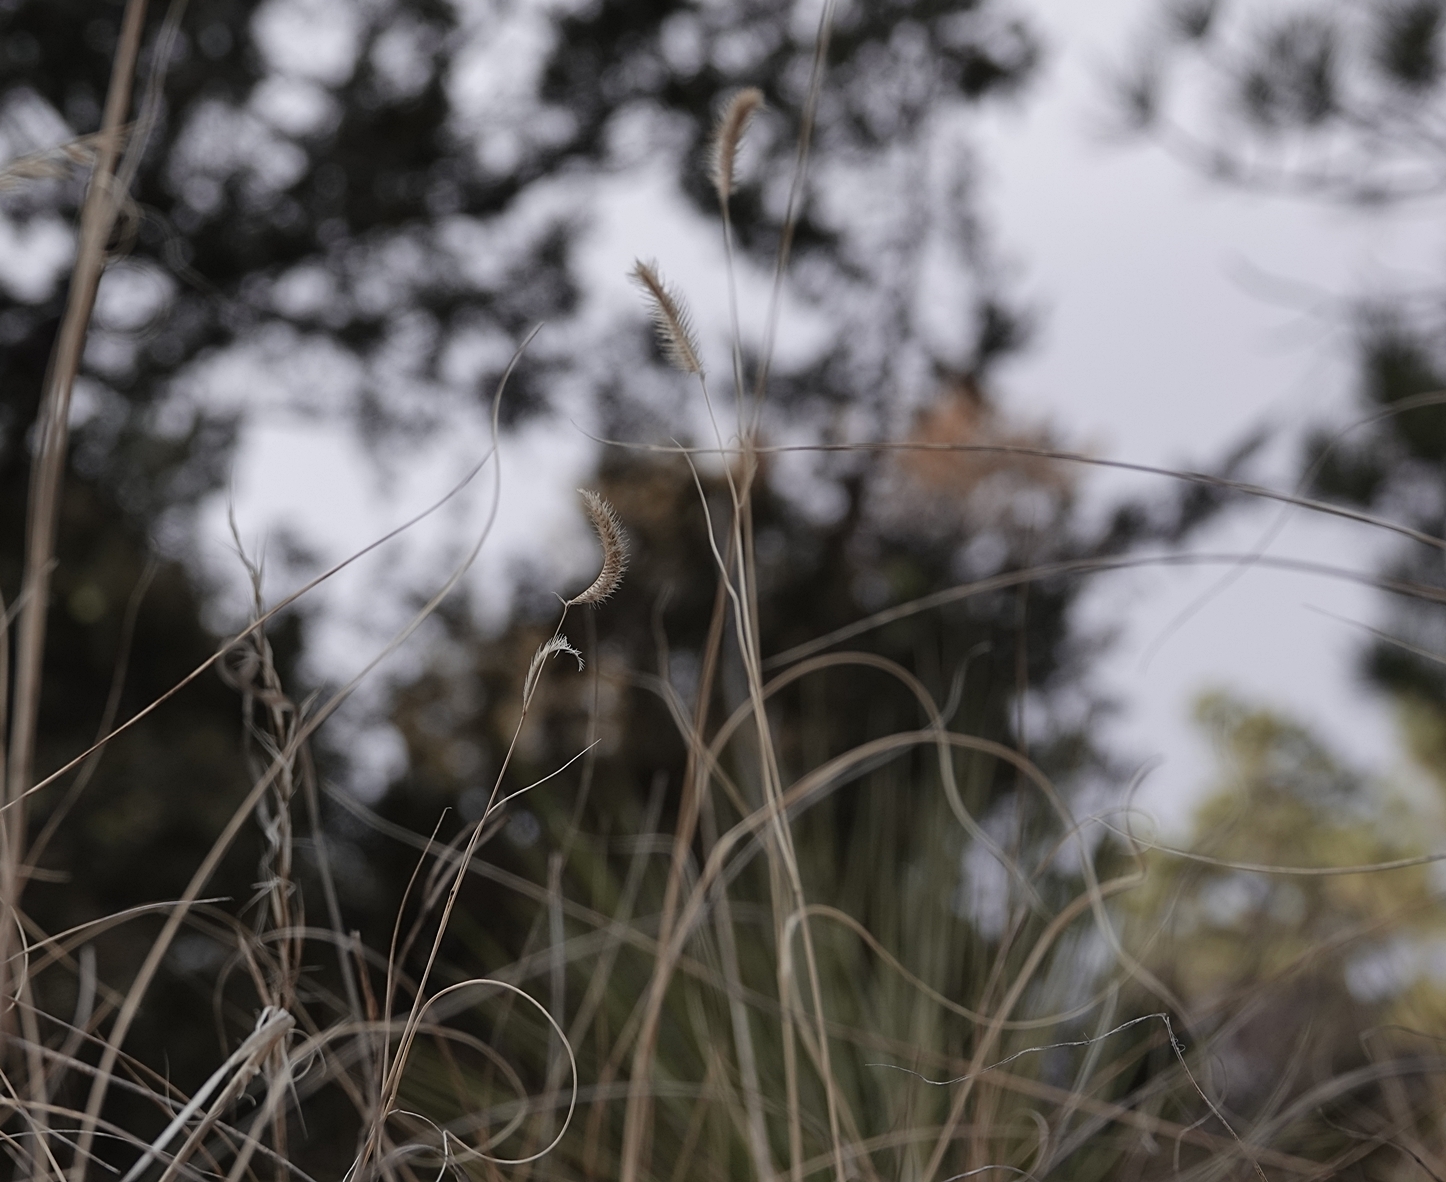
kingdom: Plantae
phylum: Tracheophyta
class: Liliopsida
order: Poales
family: Poaceae
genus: Bouteloua
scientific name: Bouteloua gracilis
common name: Blue grama
